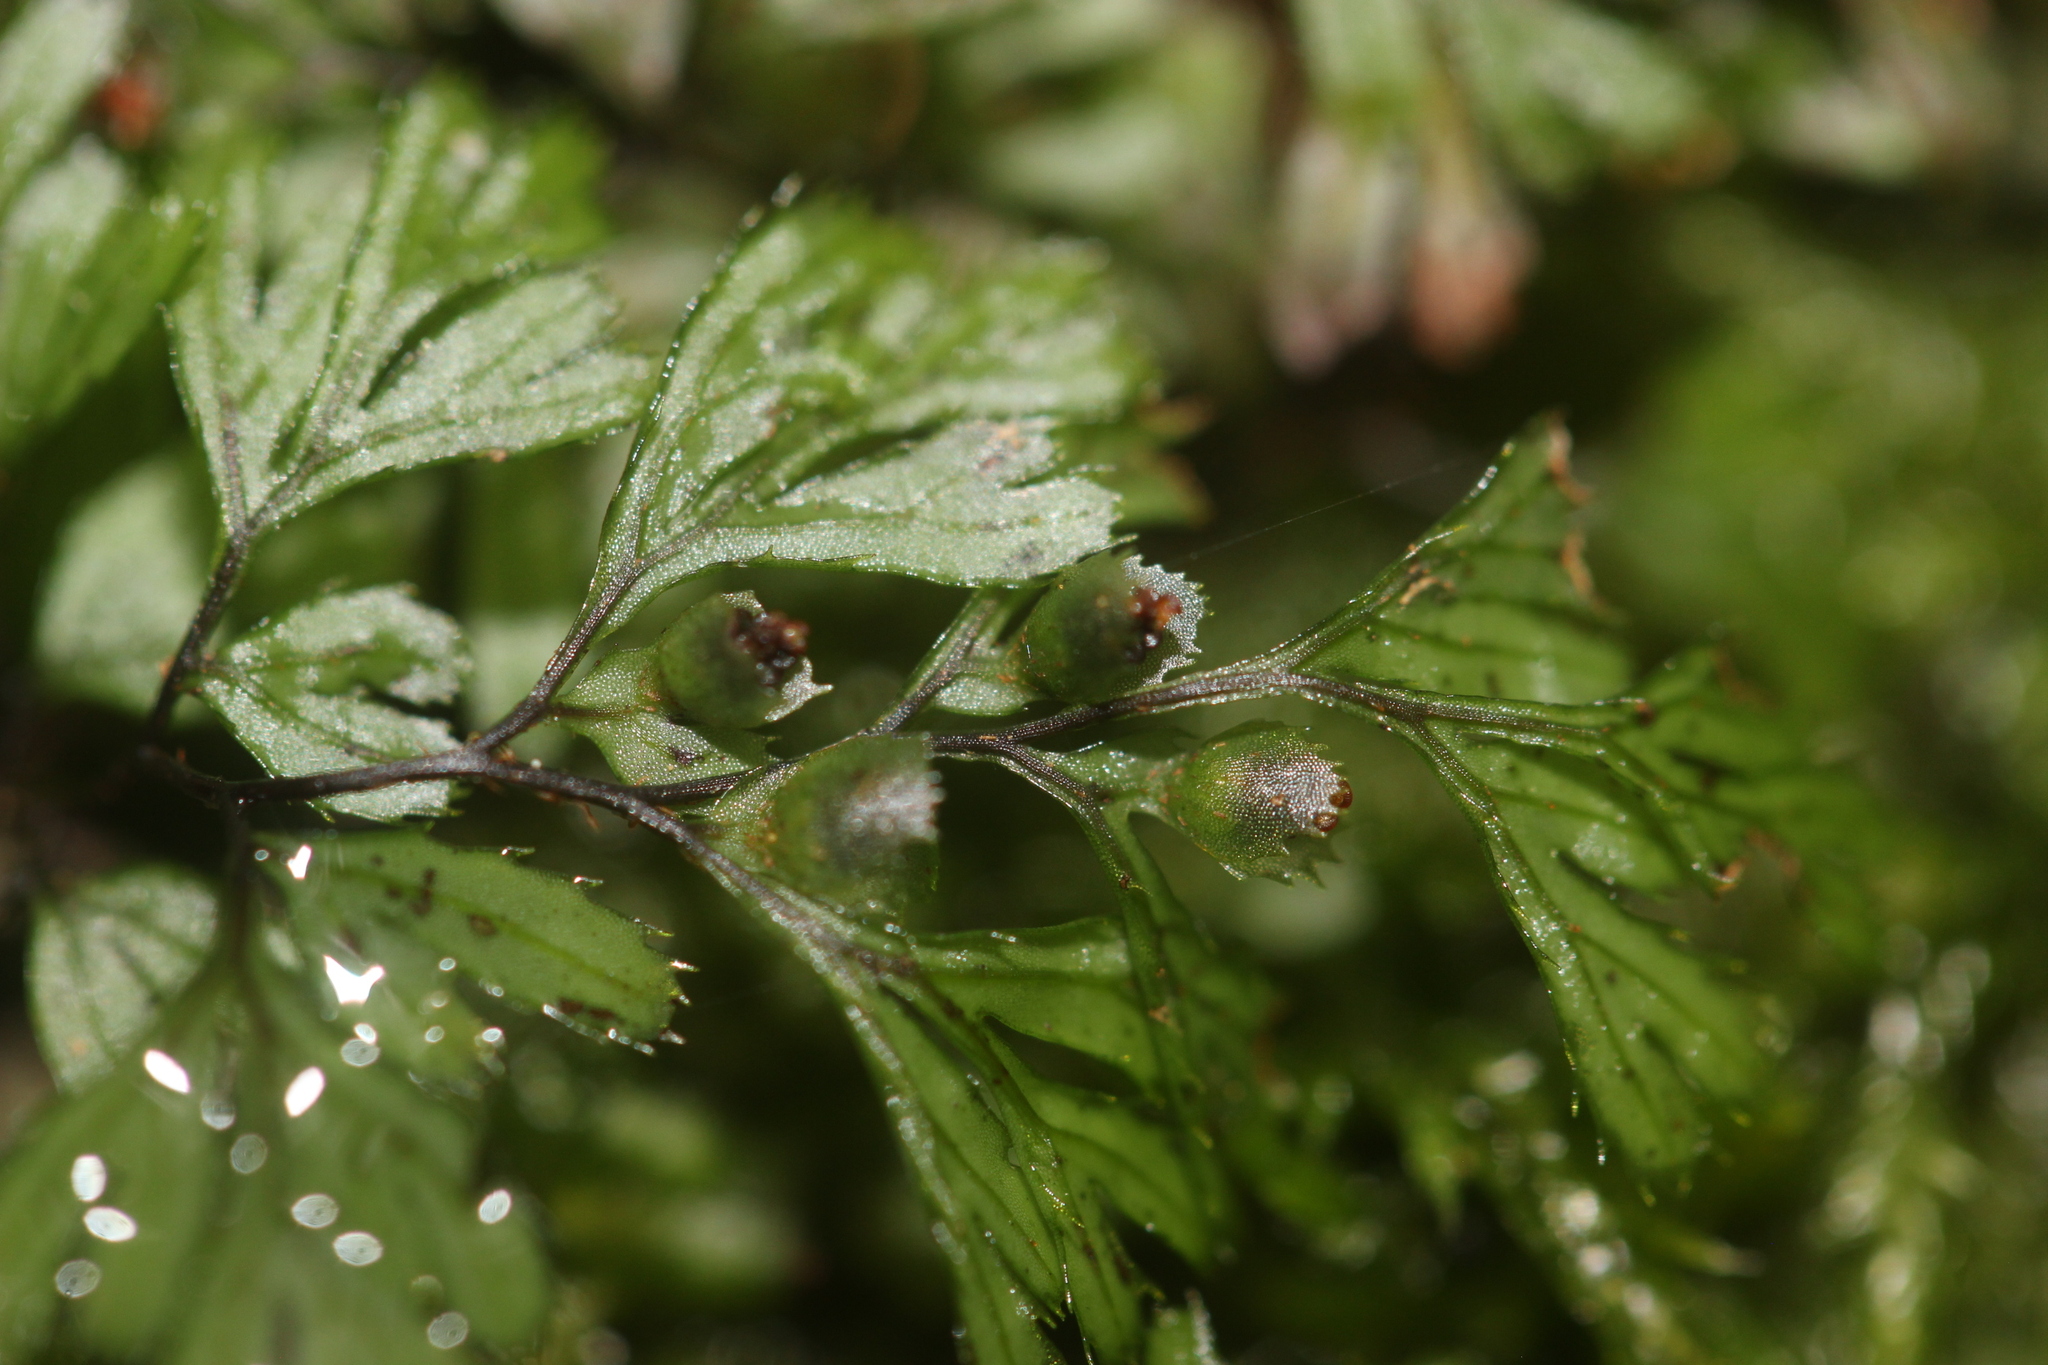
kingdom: Plantae
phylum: Tracheophyta
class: Polypodiopsida
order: Hymenophyllales
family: Hymenophyllaceae
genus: Hymenophyllum
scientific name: Hymenophyllum revolutum
